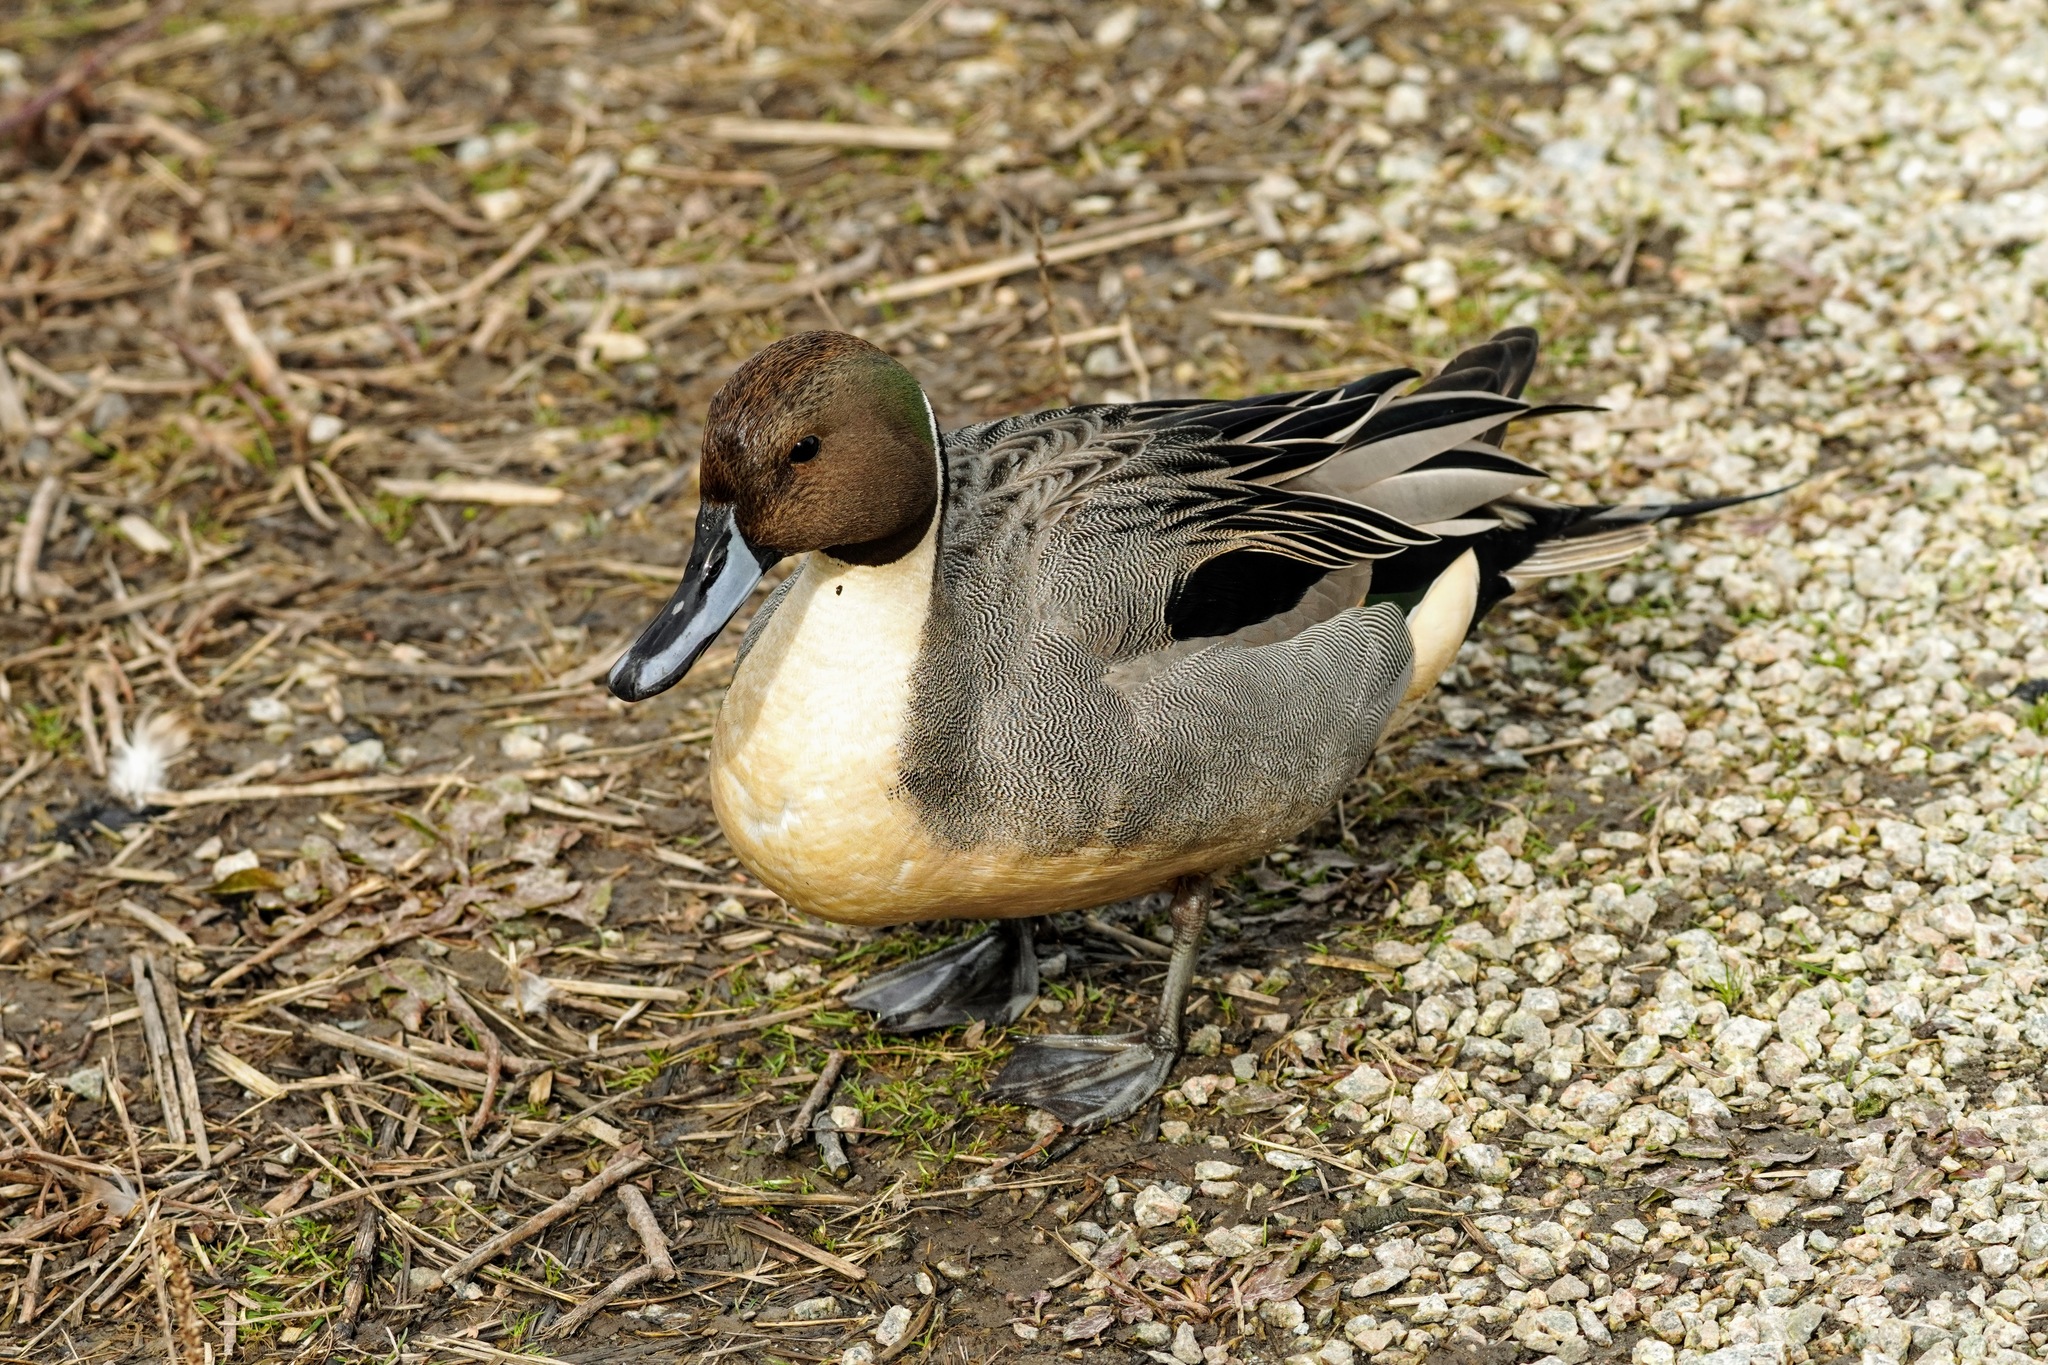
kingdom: Animalia
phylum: Chordata
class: Aves
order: Anseriformes
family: Anatidae
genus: Anas
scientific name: Anas acuta
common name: Northern pintail
